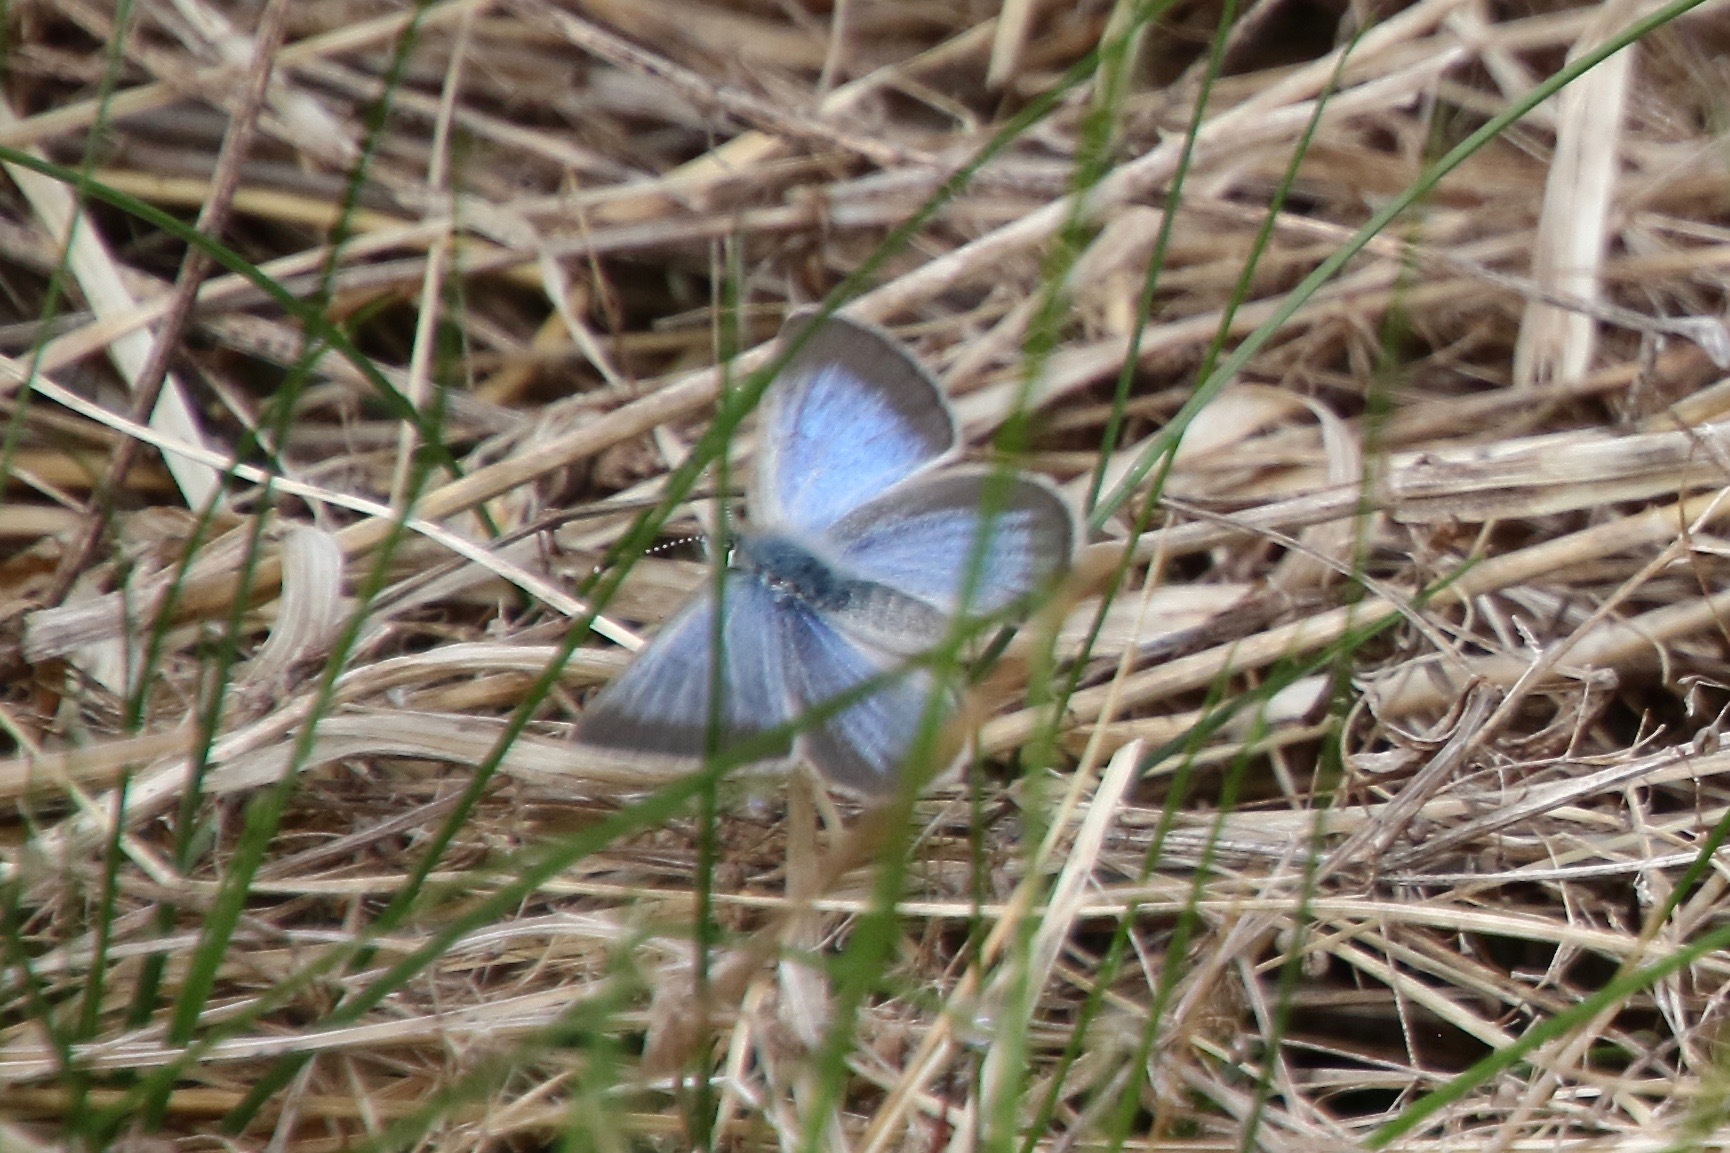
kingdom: Animalia
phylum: Arthropoda
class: Insecta
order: Lepidoptera
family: Lycaenidae
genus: Glaucopsyche
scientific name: Glaucopsyche lygdamus
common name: Silvery blue
